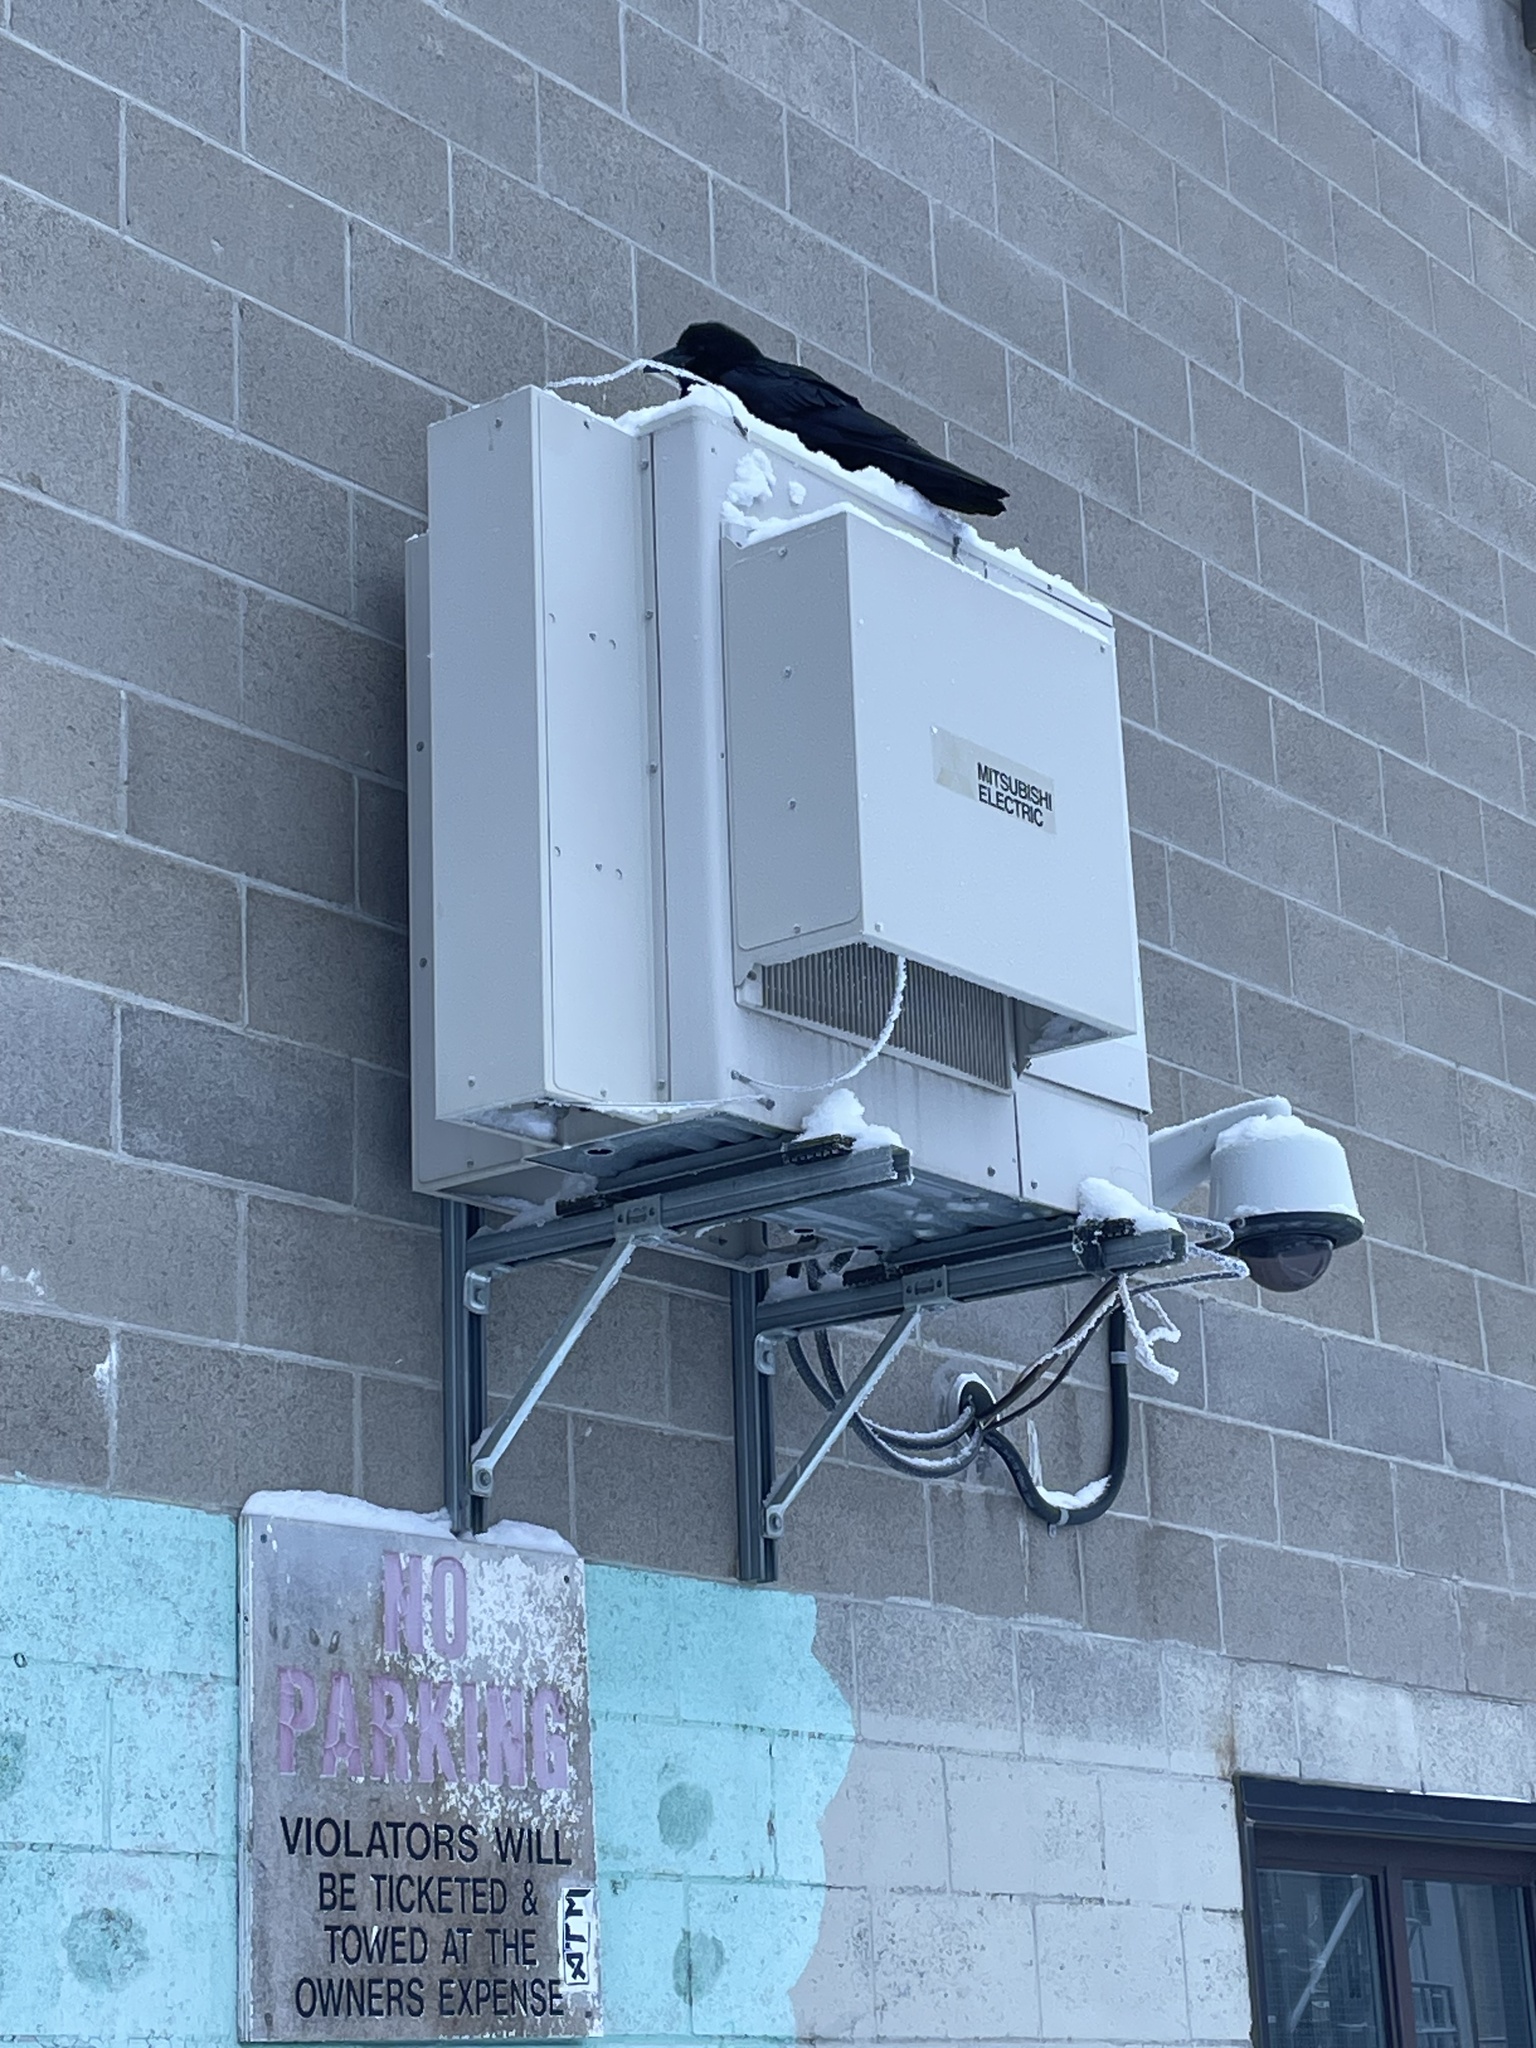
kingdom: Animalia
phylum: Chordata
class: Aves
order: Passeriformes
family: Corvidae
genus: Corvus
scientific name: Corvus corax
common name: Common raven
